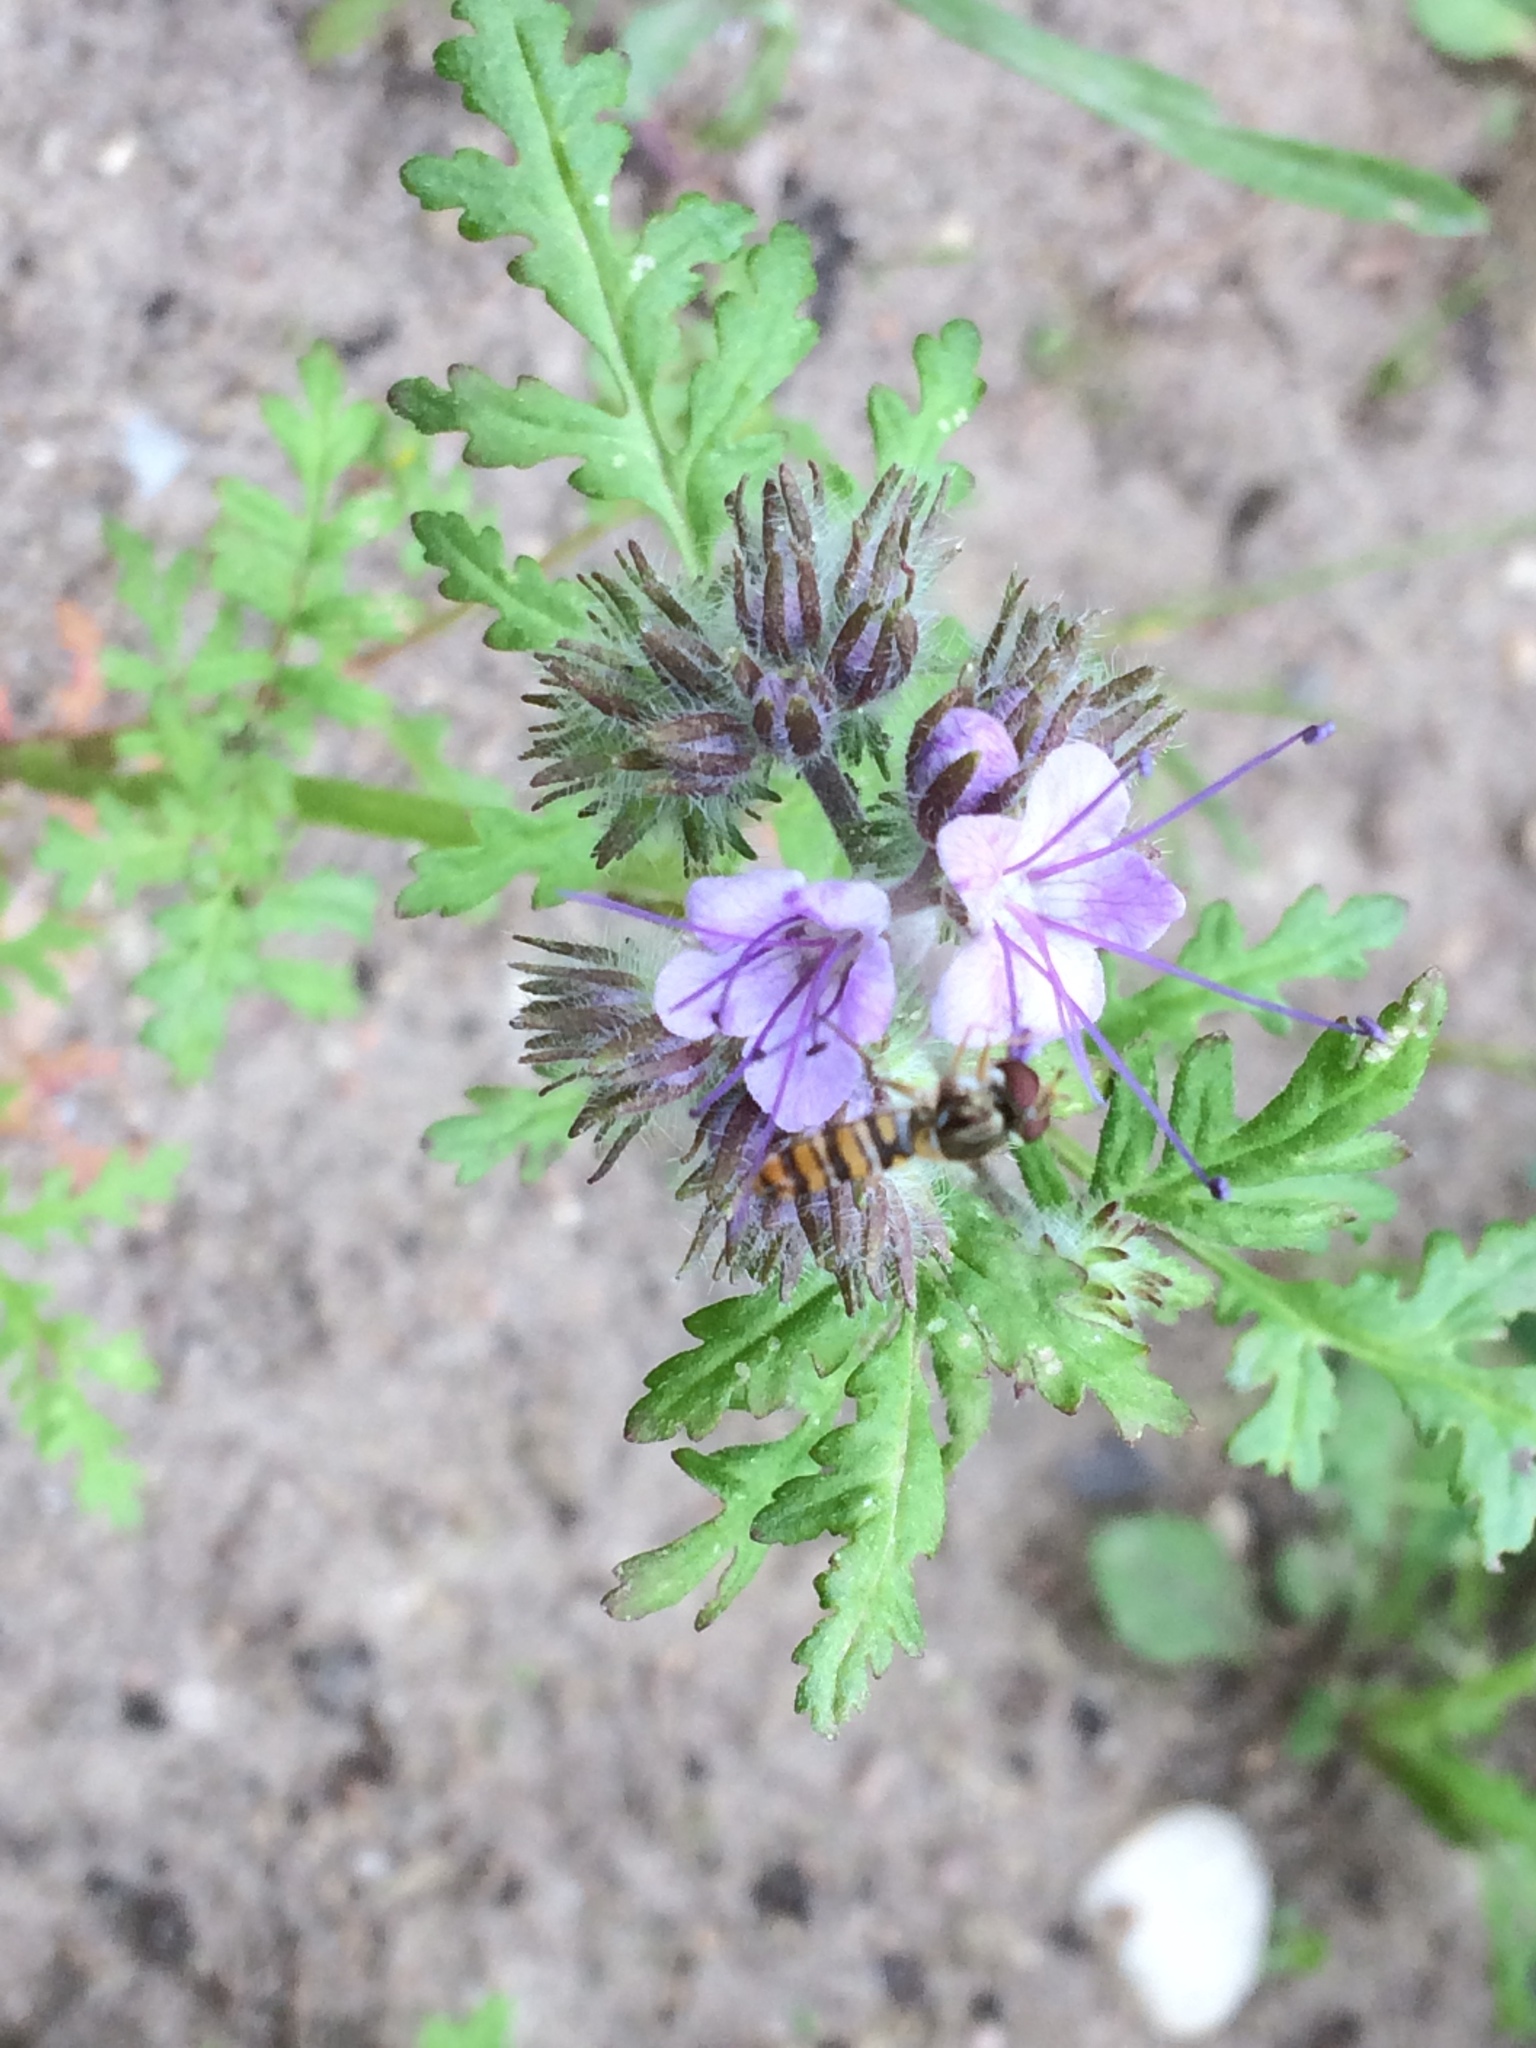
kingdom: Plantae
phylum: Tracheophyta
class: Magnoliopsida
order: Boraginales
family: Hydrophyllaceae
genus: Phacelia
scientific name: Phacelia tanacetifolia
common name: Phacelia
